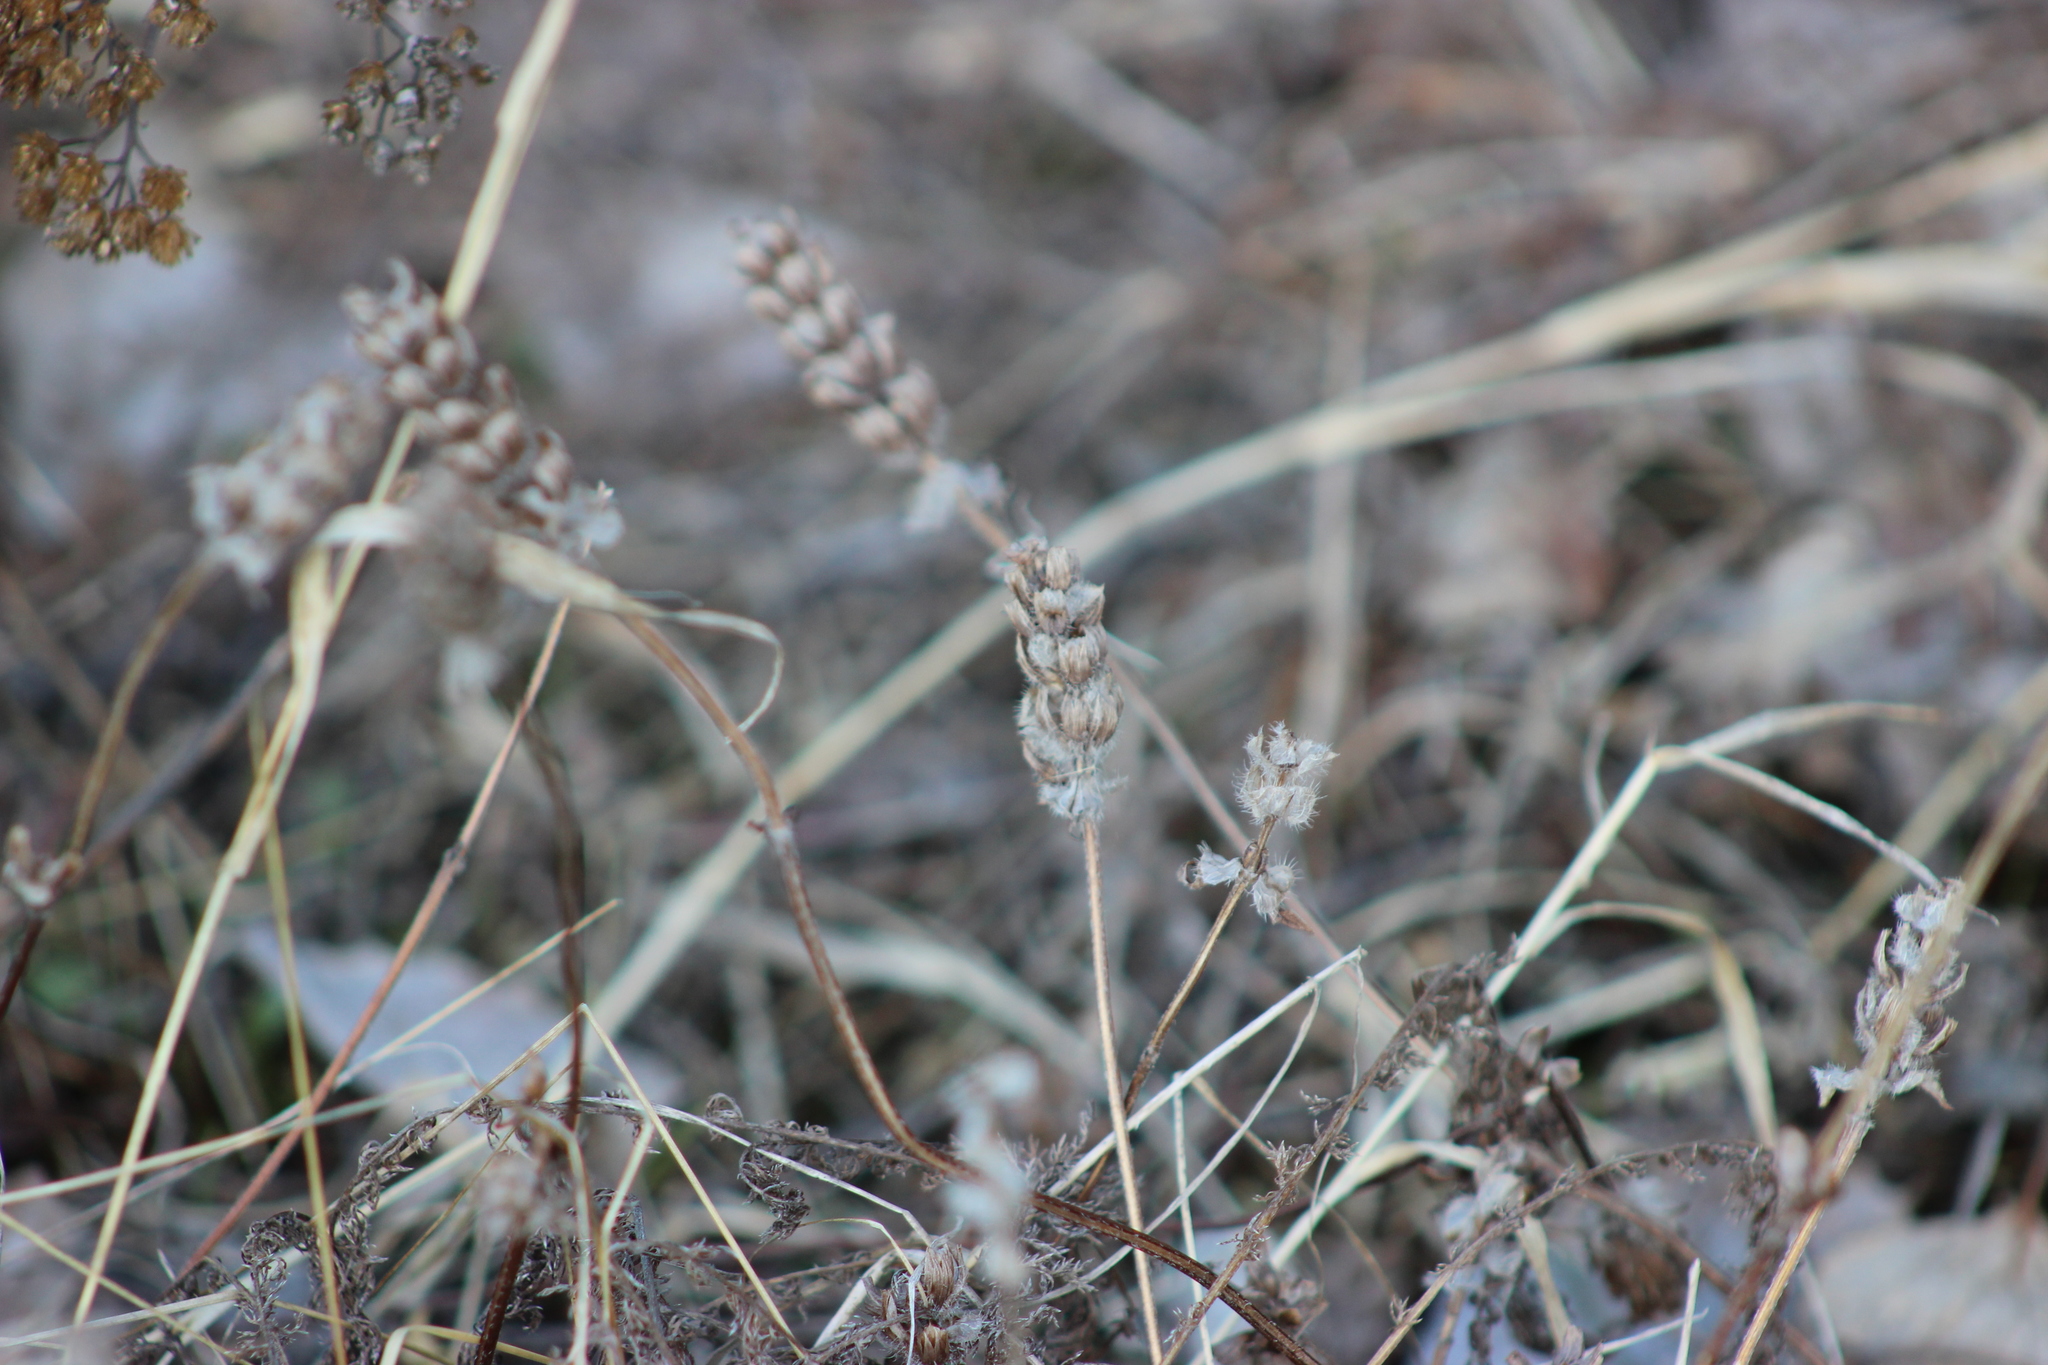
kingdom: Plantae
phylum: Tracheophyta
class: Magnoliopsida
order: Lamiales
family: Lamiaceae
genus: Prunella
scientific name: Prunella vulgaris
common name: Heal-all
